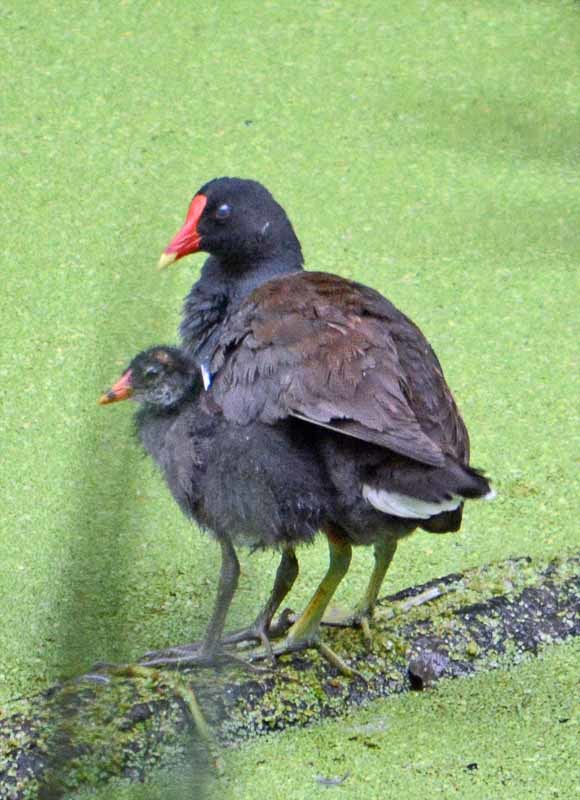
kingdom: Animalia
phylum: Chordata
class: Aves
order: Gruiformes
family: Rallidae
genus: Gallinula
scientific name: Gallinula chloropus
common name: Common moorhen
